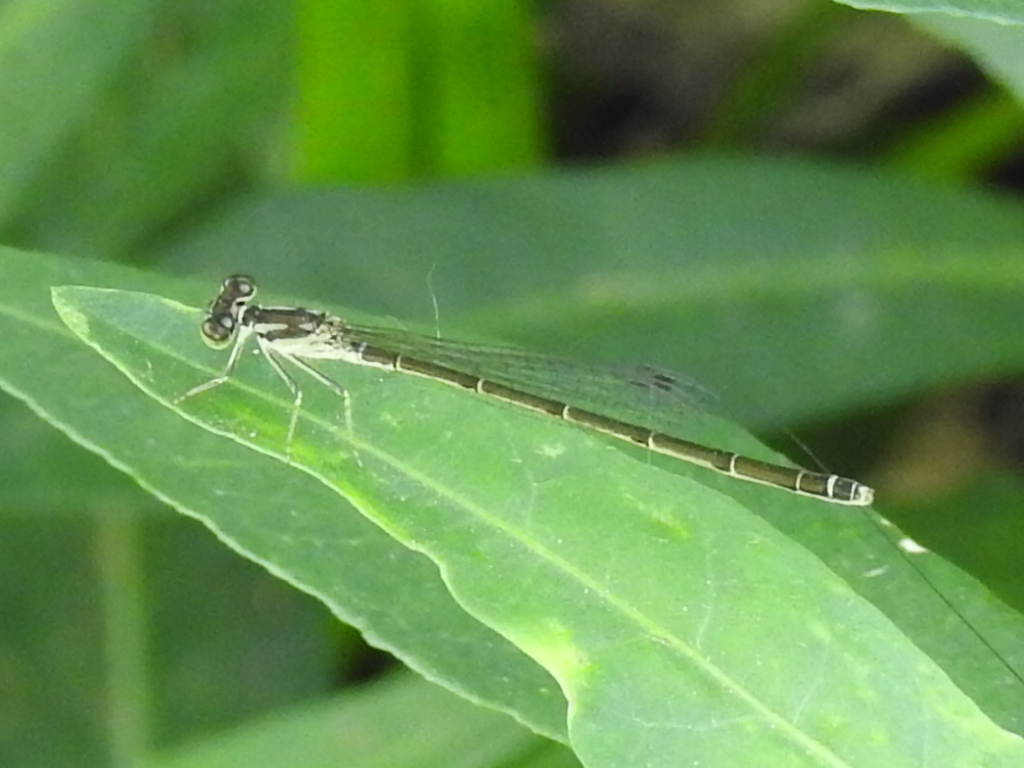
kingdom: Animalia
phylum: Arthropoda
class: Insecta
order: Odonata
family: Coenagrionidae
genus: Ischnura
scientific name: Ischnura posita
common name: Fragile forktail
